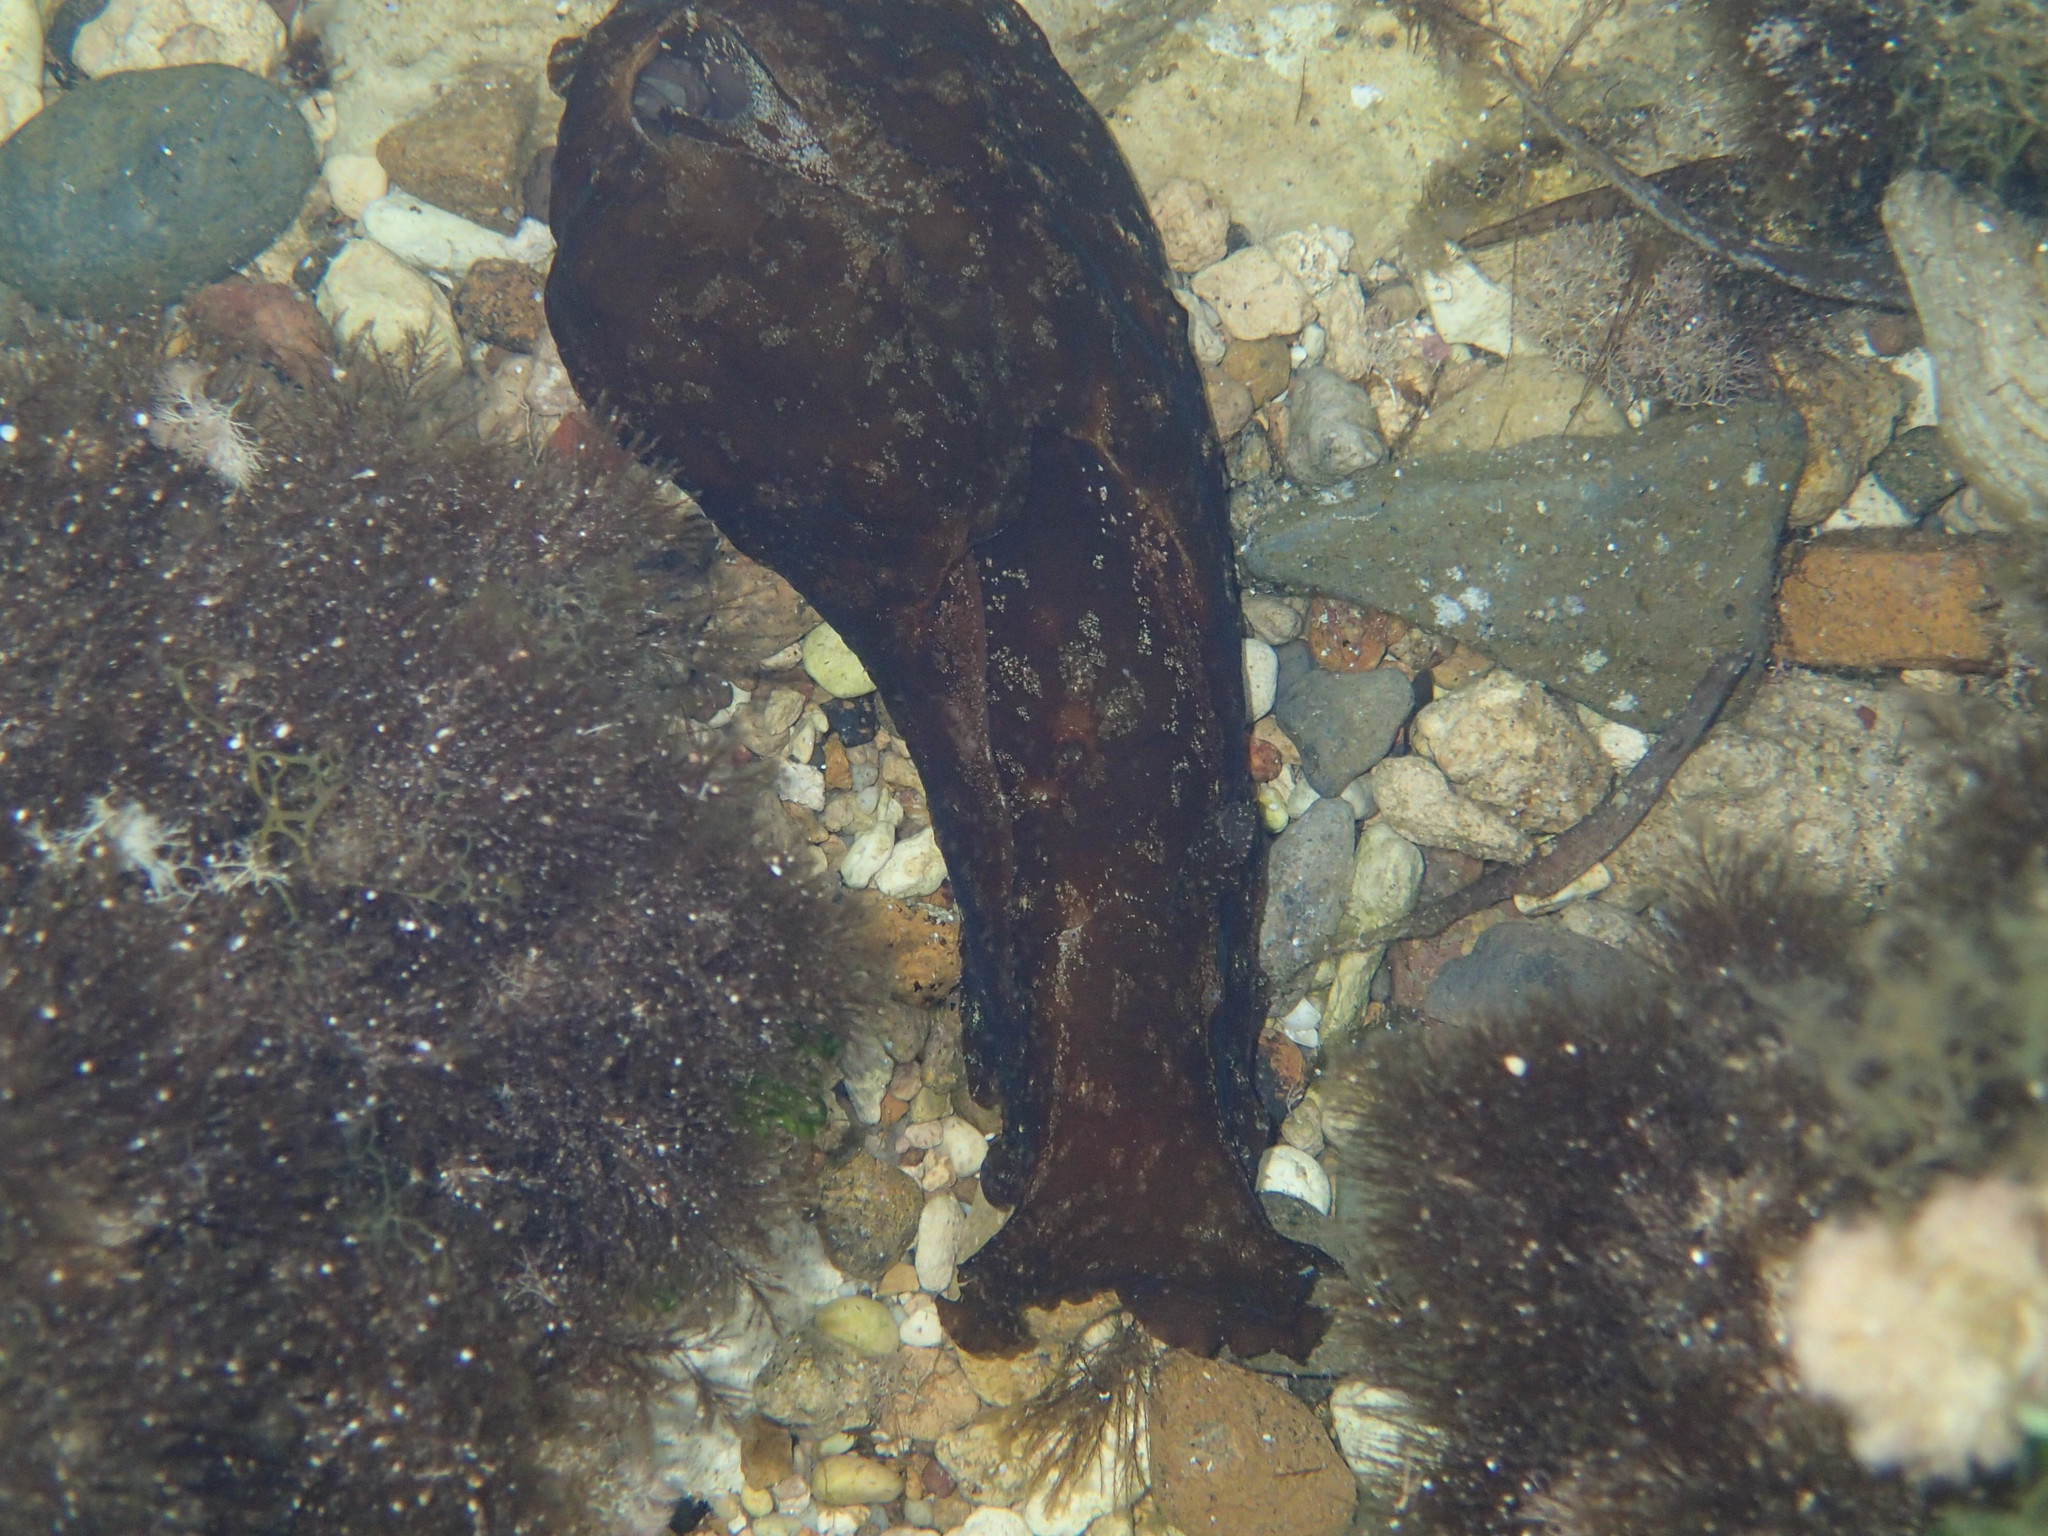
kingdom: Animalia
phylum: Mollusca
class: Gastropoda
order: Aplysiida
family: Aplysiidae
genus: Aplysia
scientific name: Aplysia depilans
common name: Spotted sea hare
